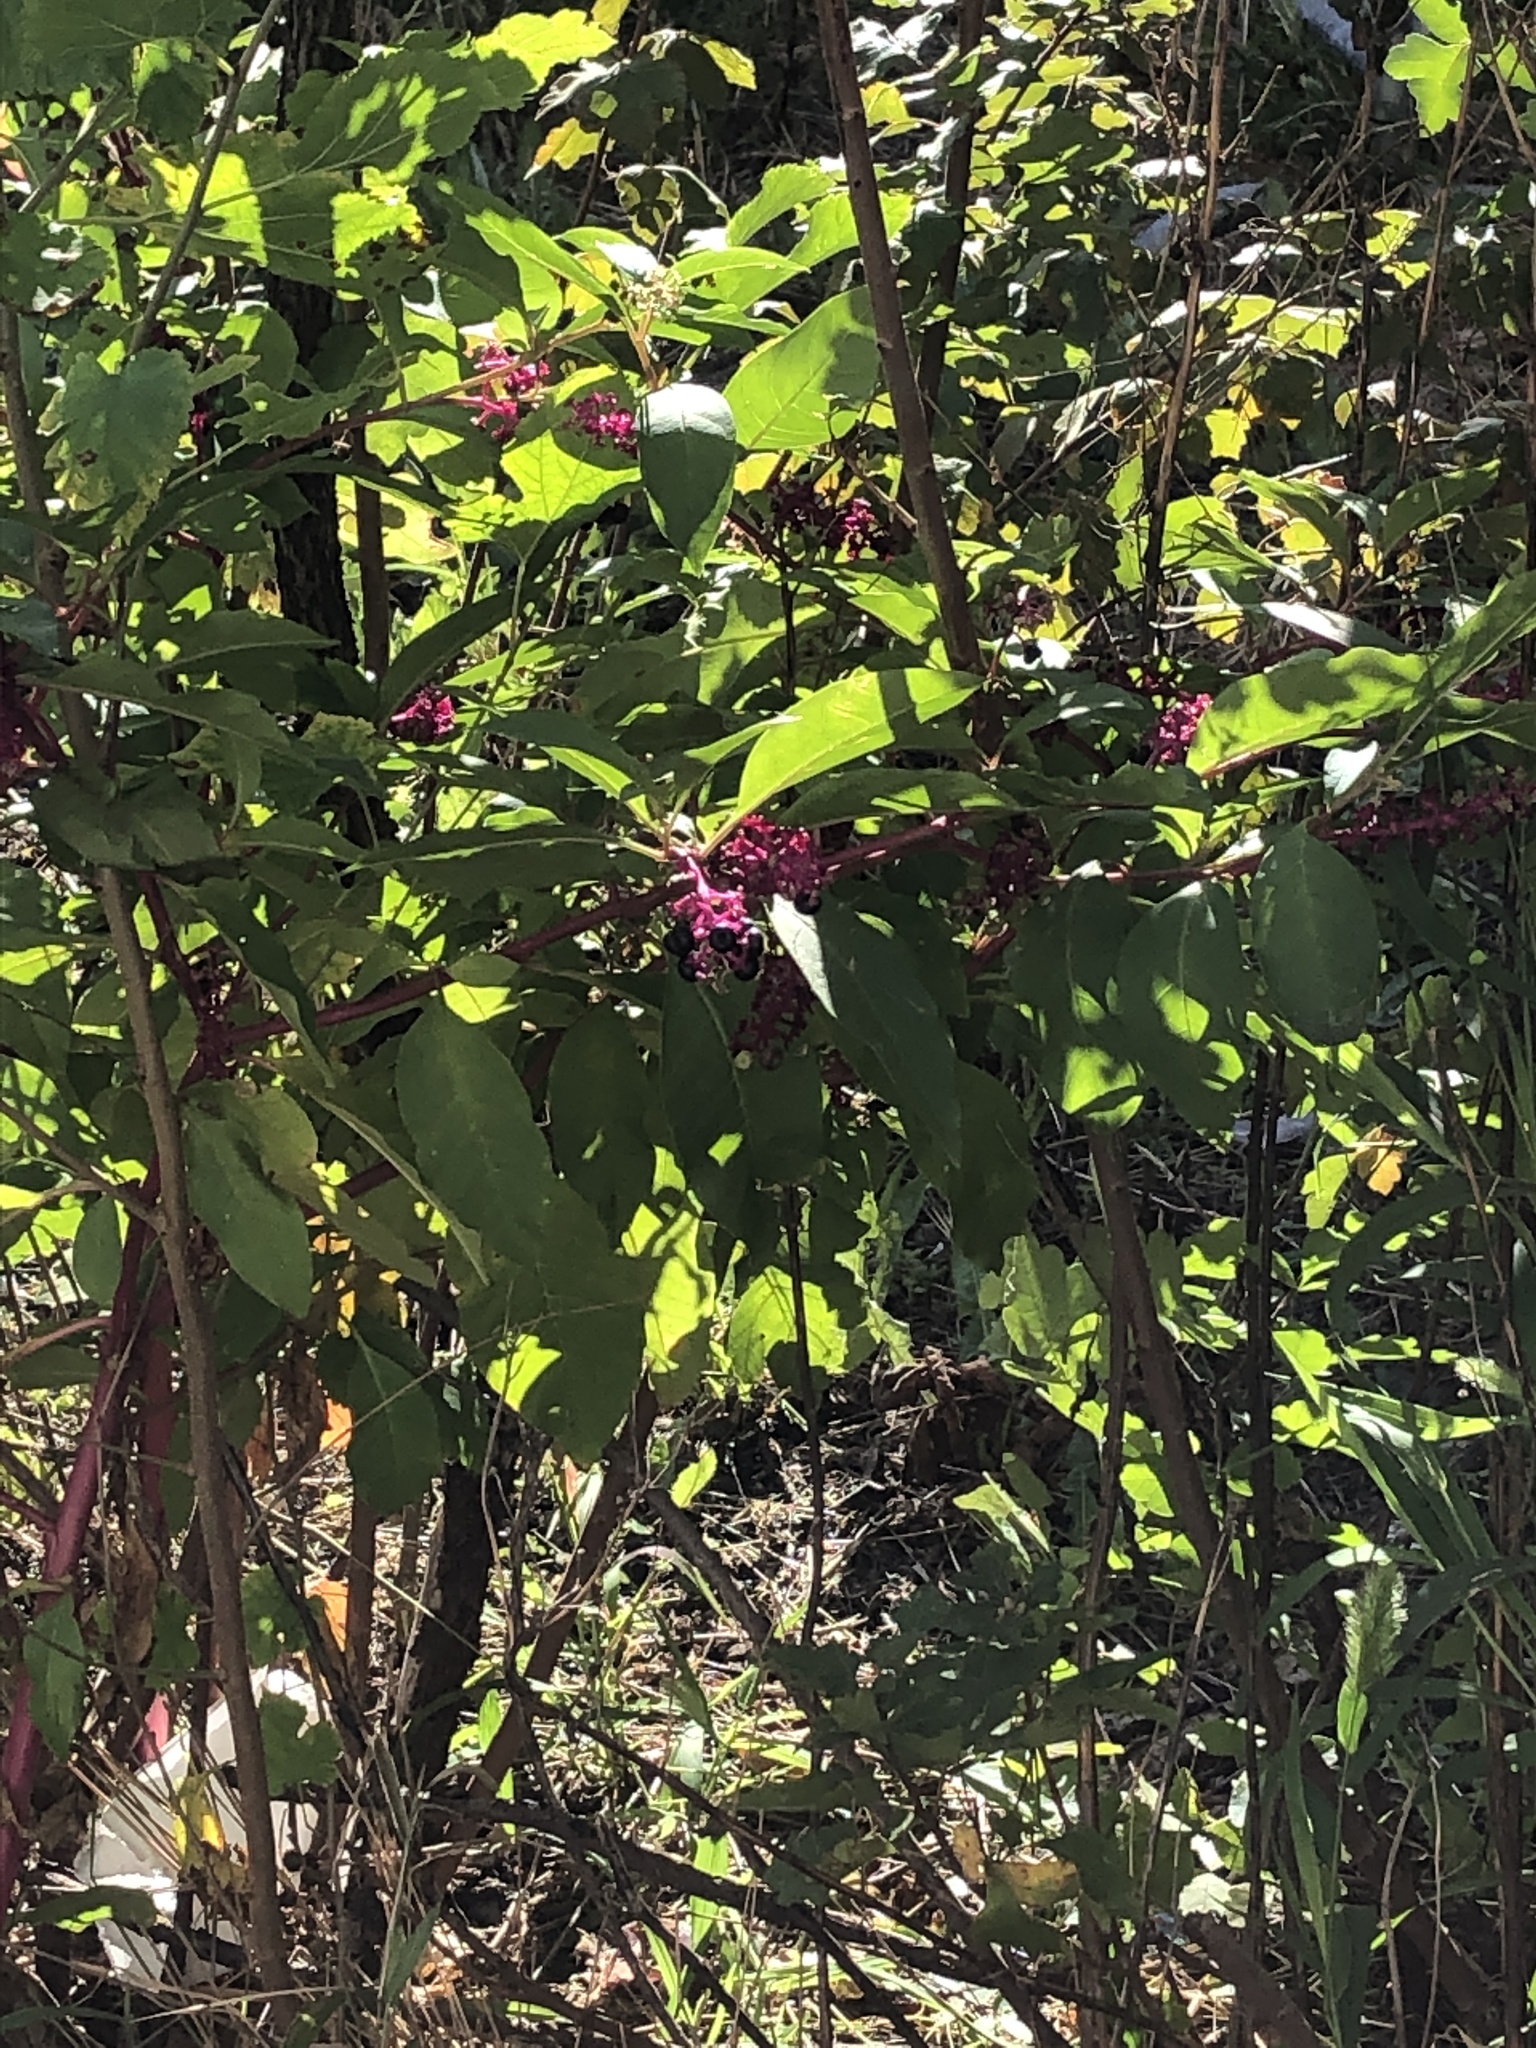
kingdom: Plantae
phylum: Tracheophyta
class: Magnoliopsida
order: Caryophyllales
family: Phytolaccaceae
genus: Phytolacca
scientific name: Phytolacca americana
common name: American pokeweed
